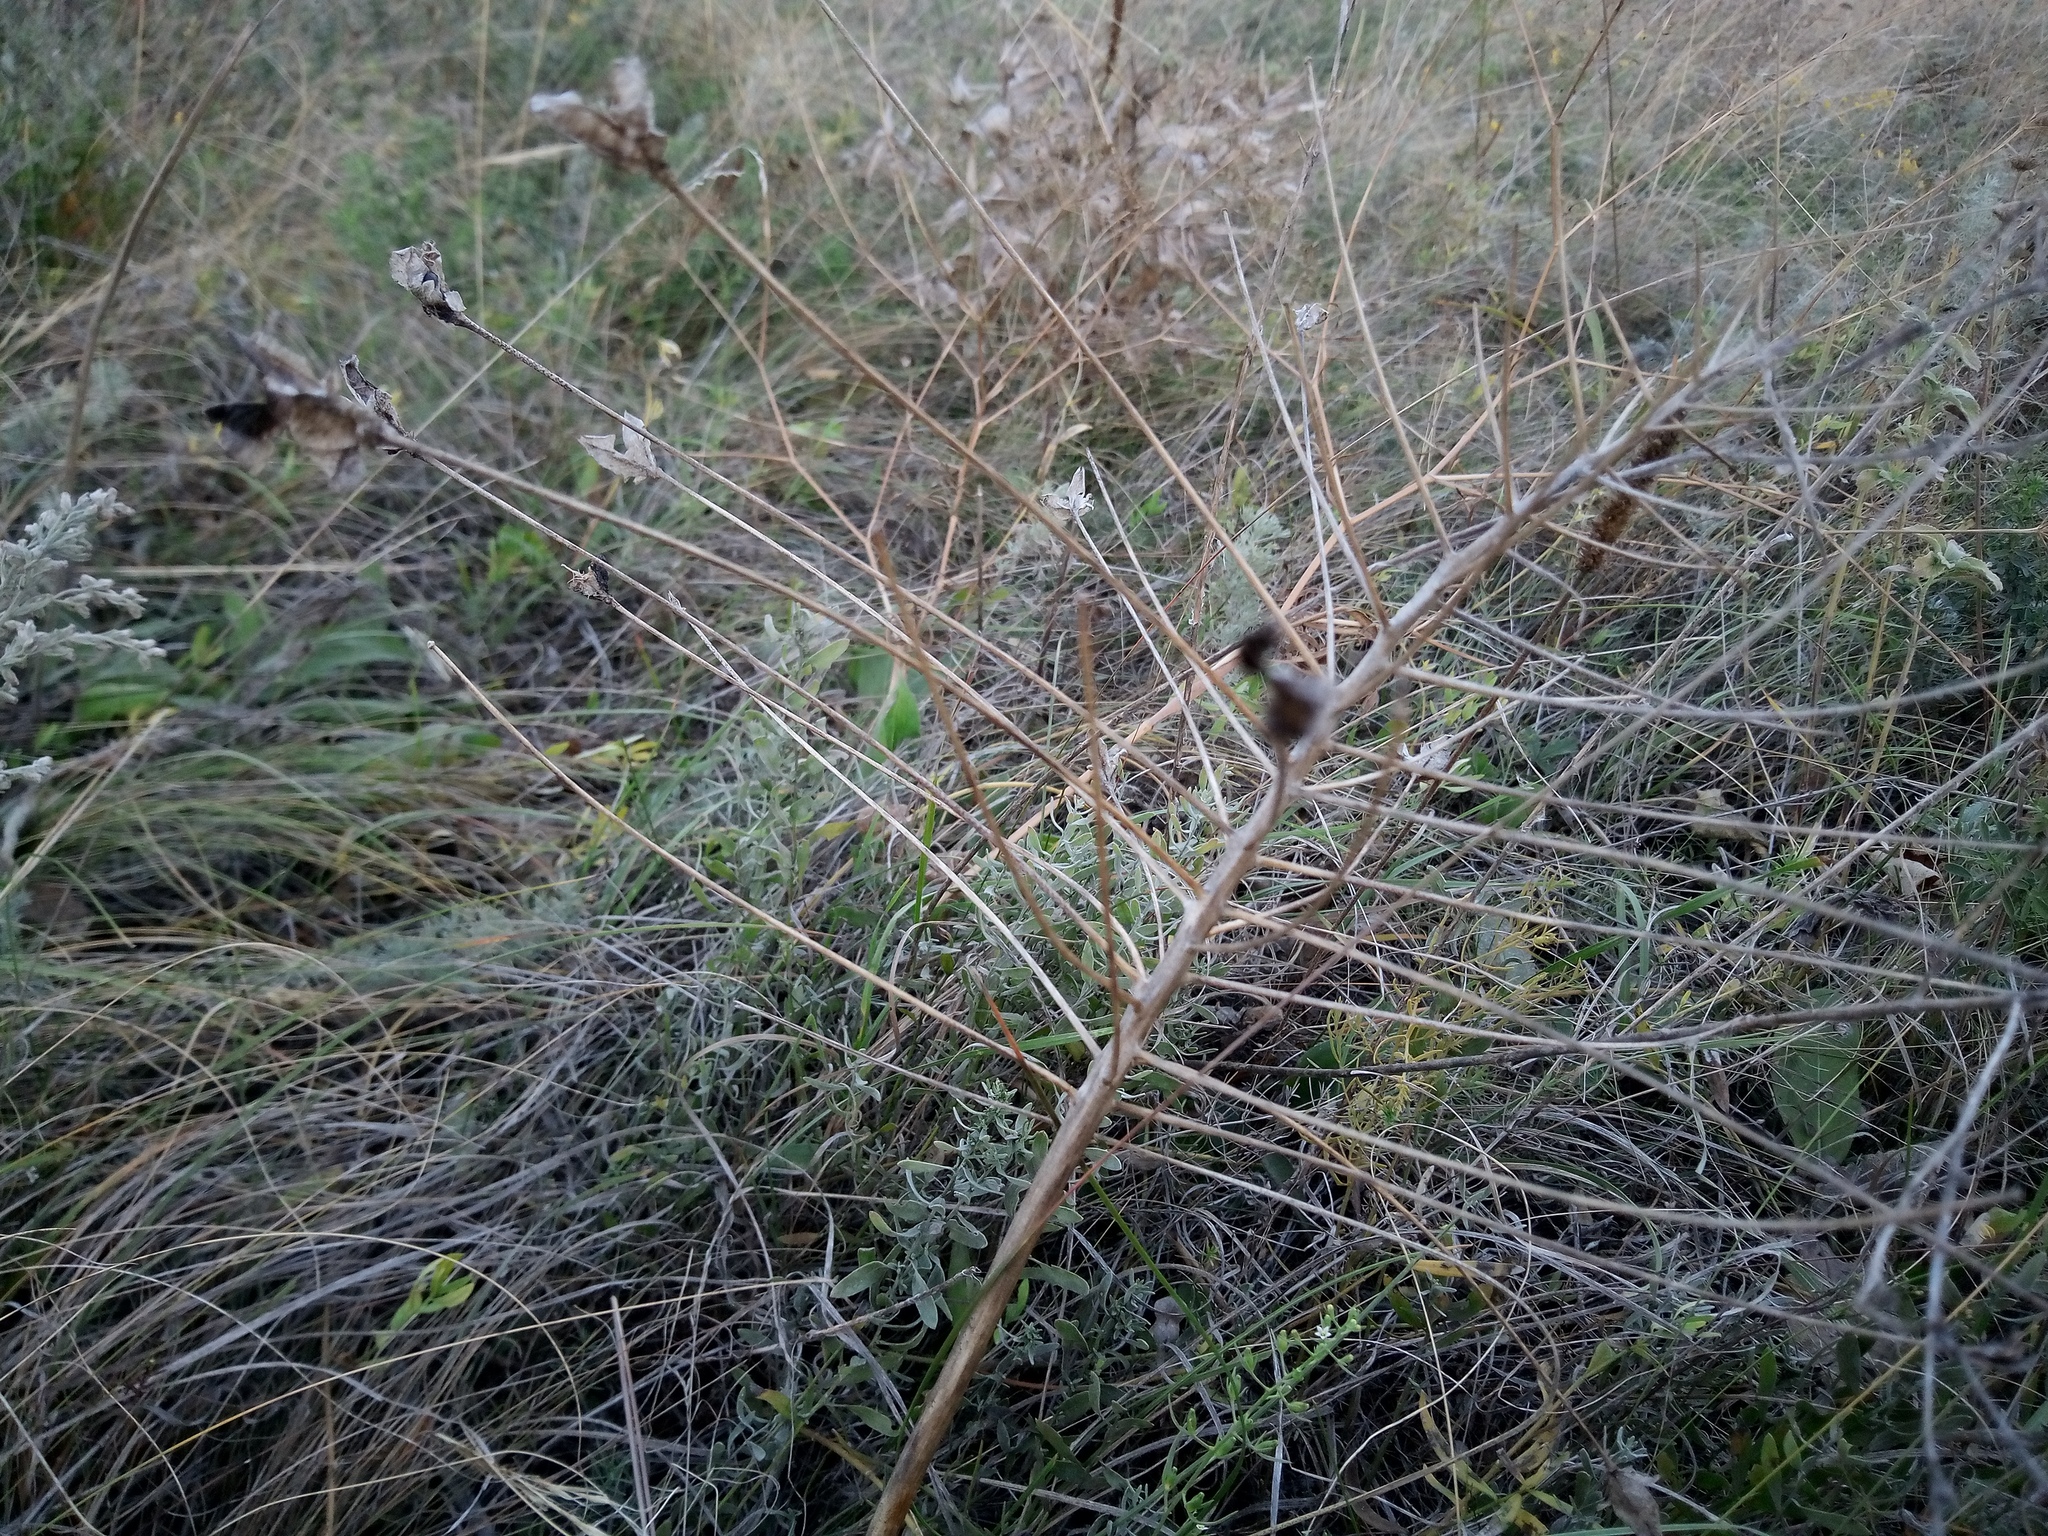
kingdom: Plantae
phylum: Tracheophyta
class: Liliopsida
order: Asparagales
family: Asparagaceae
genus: Bellevalia
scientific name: Bellevalia speciosa
